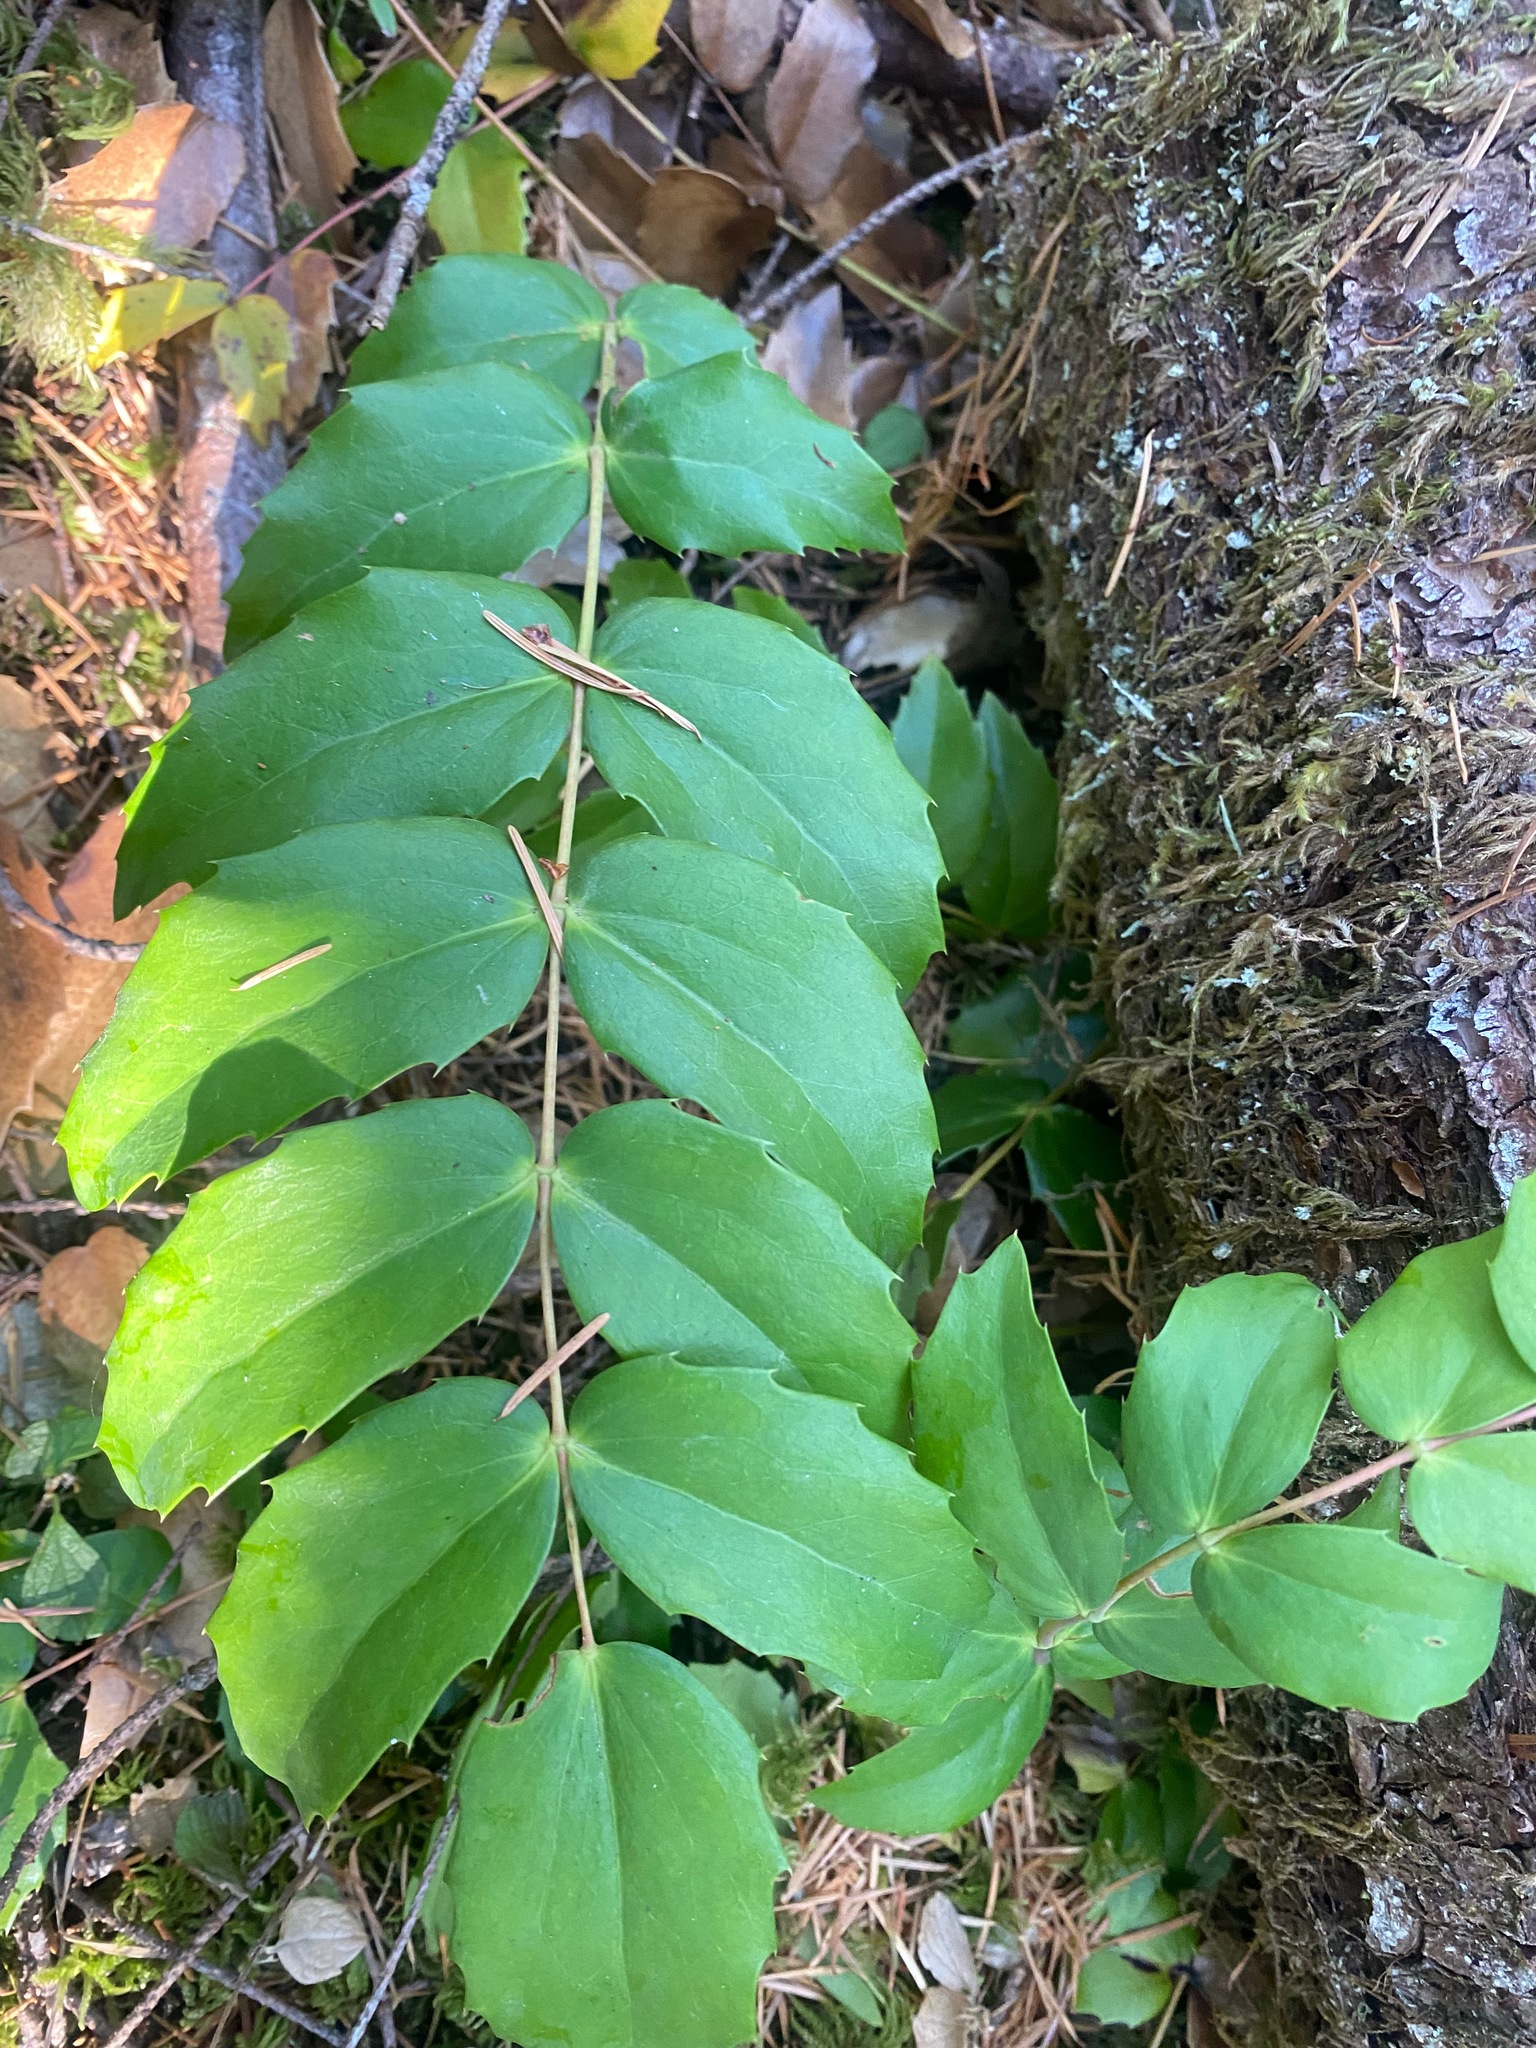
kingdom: Plantae
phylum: Tracheophyta
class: Magnoliopsida
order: Ranunculales
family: Berberidaceae
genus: Mahonia
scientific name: Mahonia nervosa
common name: Cascade oregon-grape
